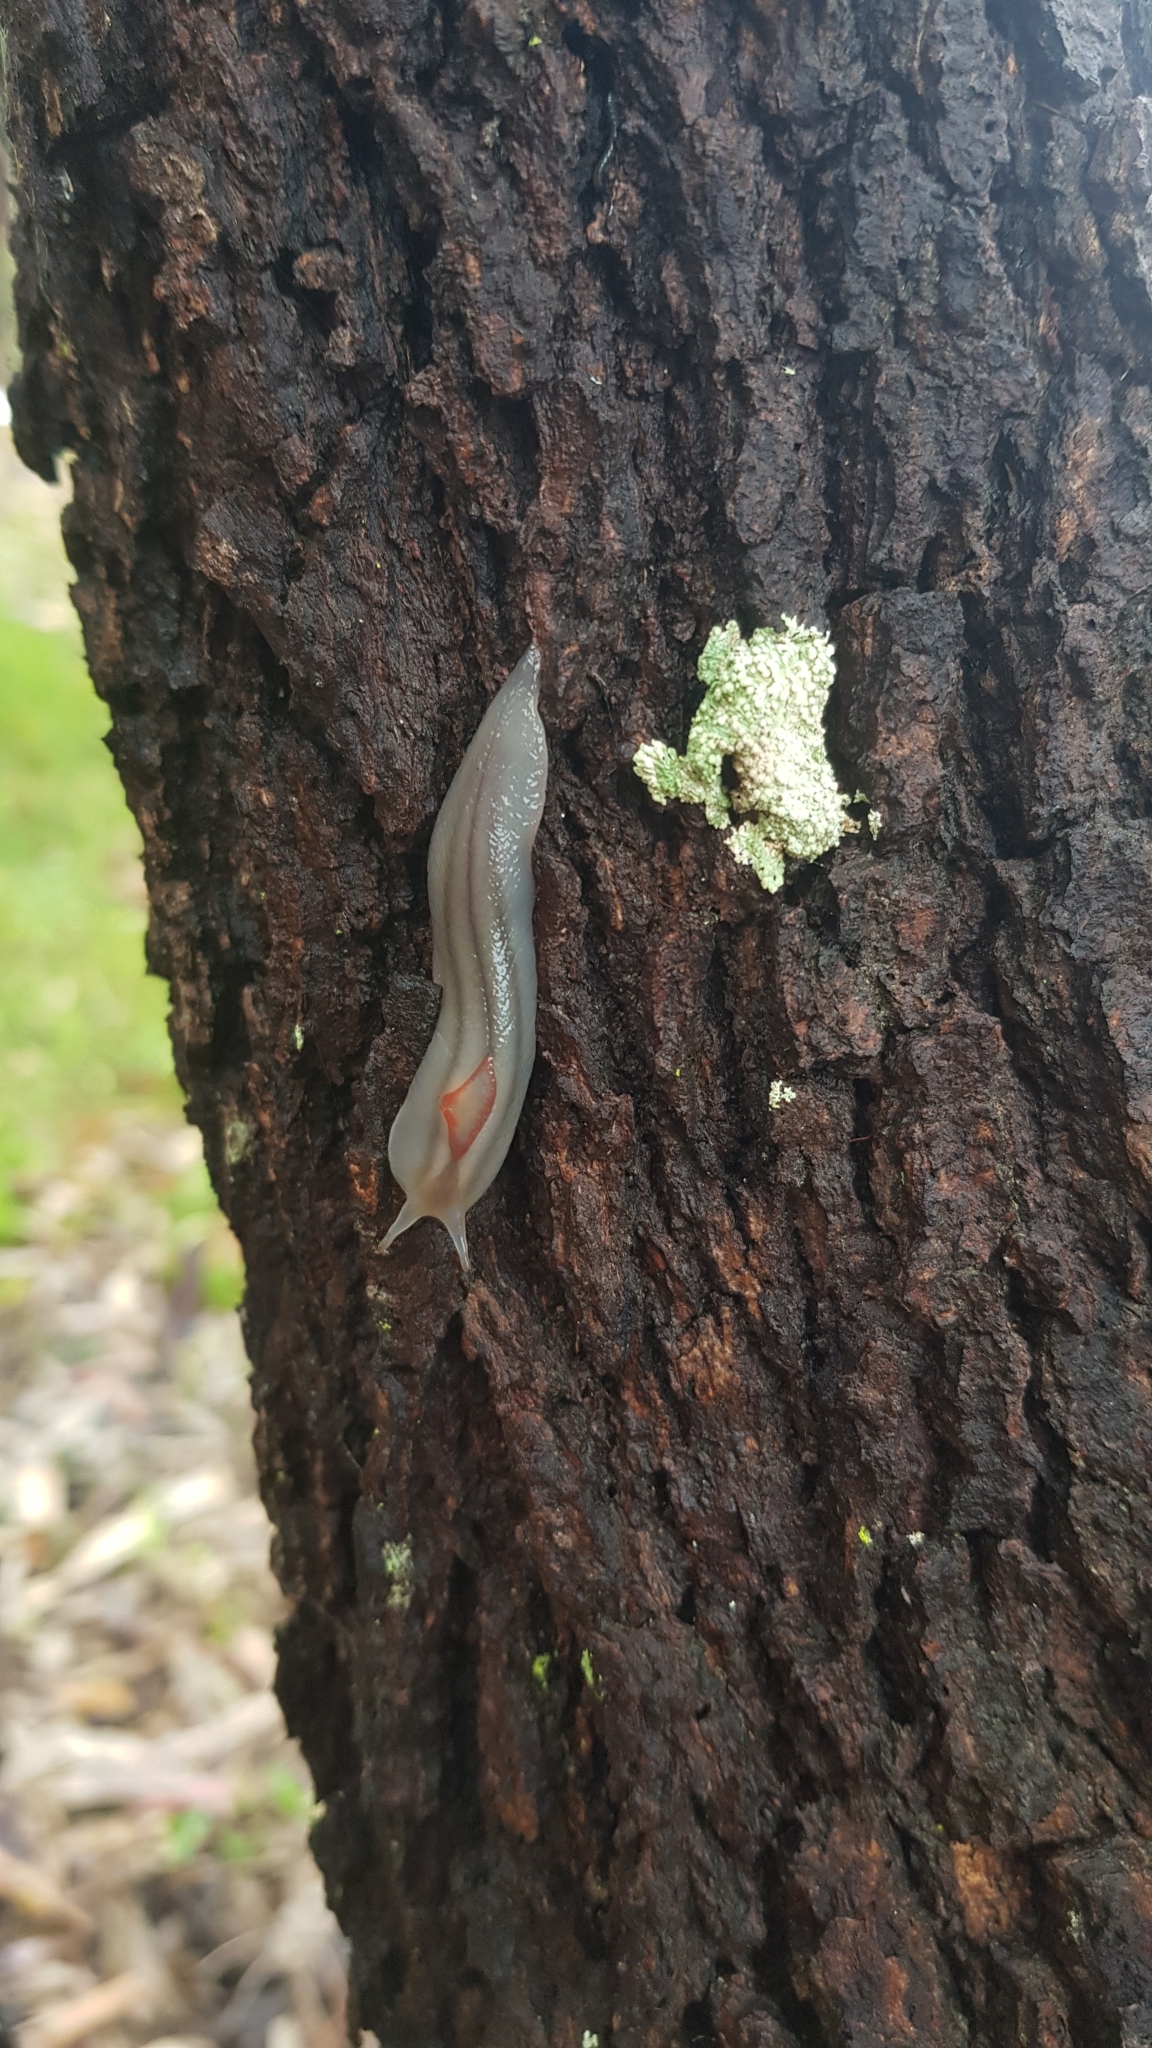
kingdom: Animalia
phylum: Mollusca
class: Gastropoda
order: Stylommatophora
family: Athoracophoridae
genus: Triboniophorus
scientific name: Triboniophorus graeffei
